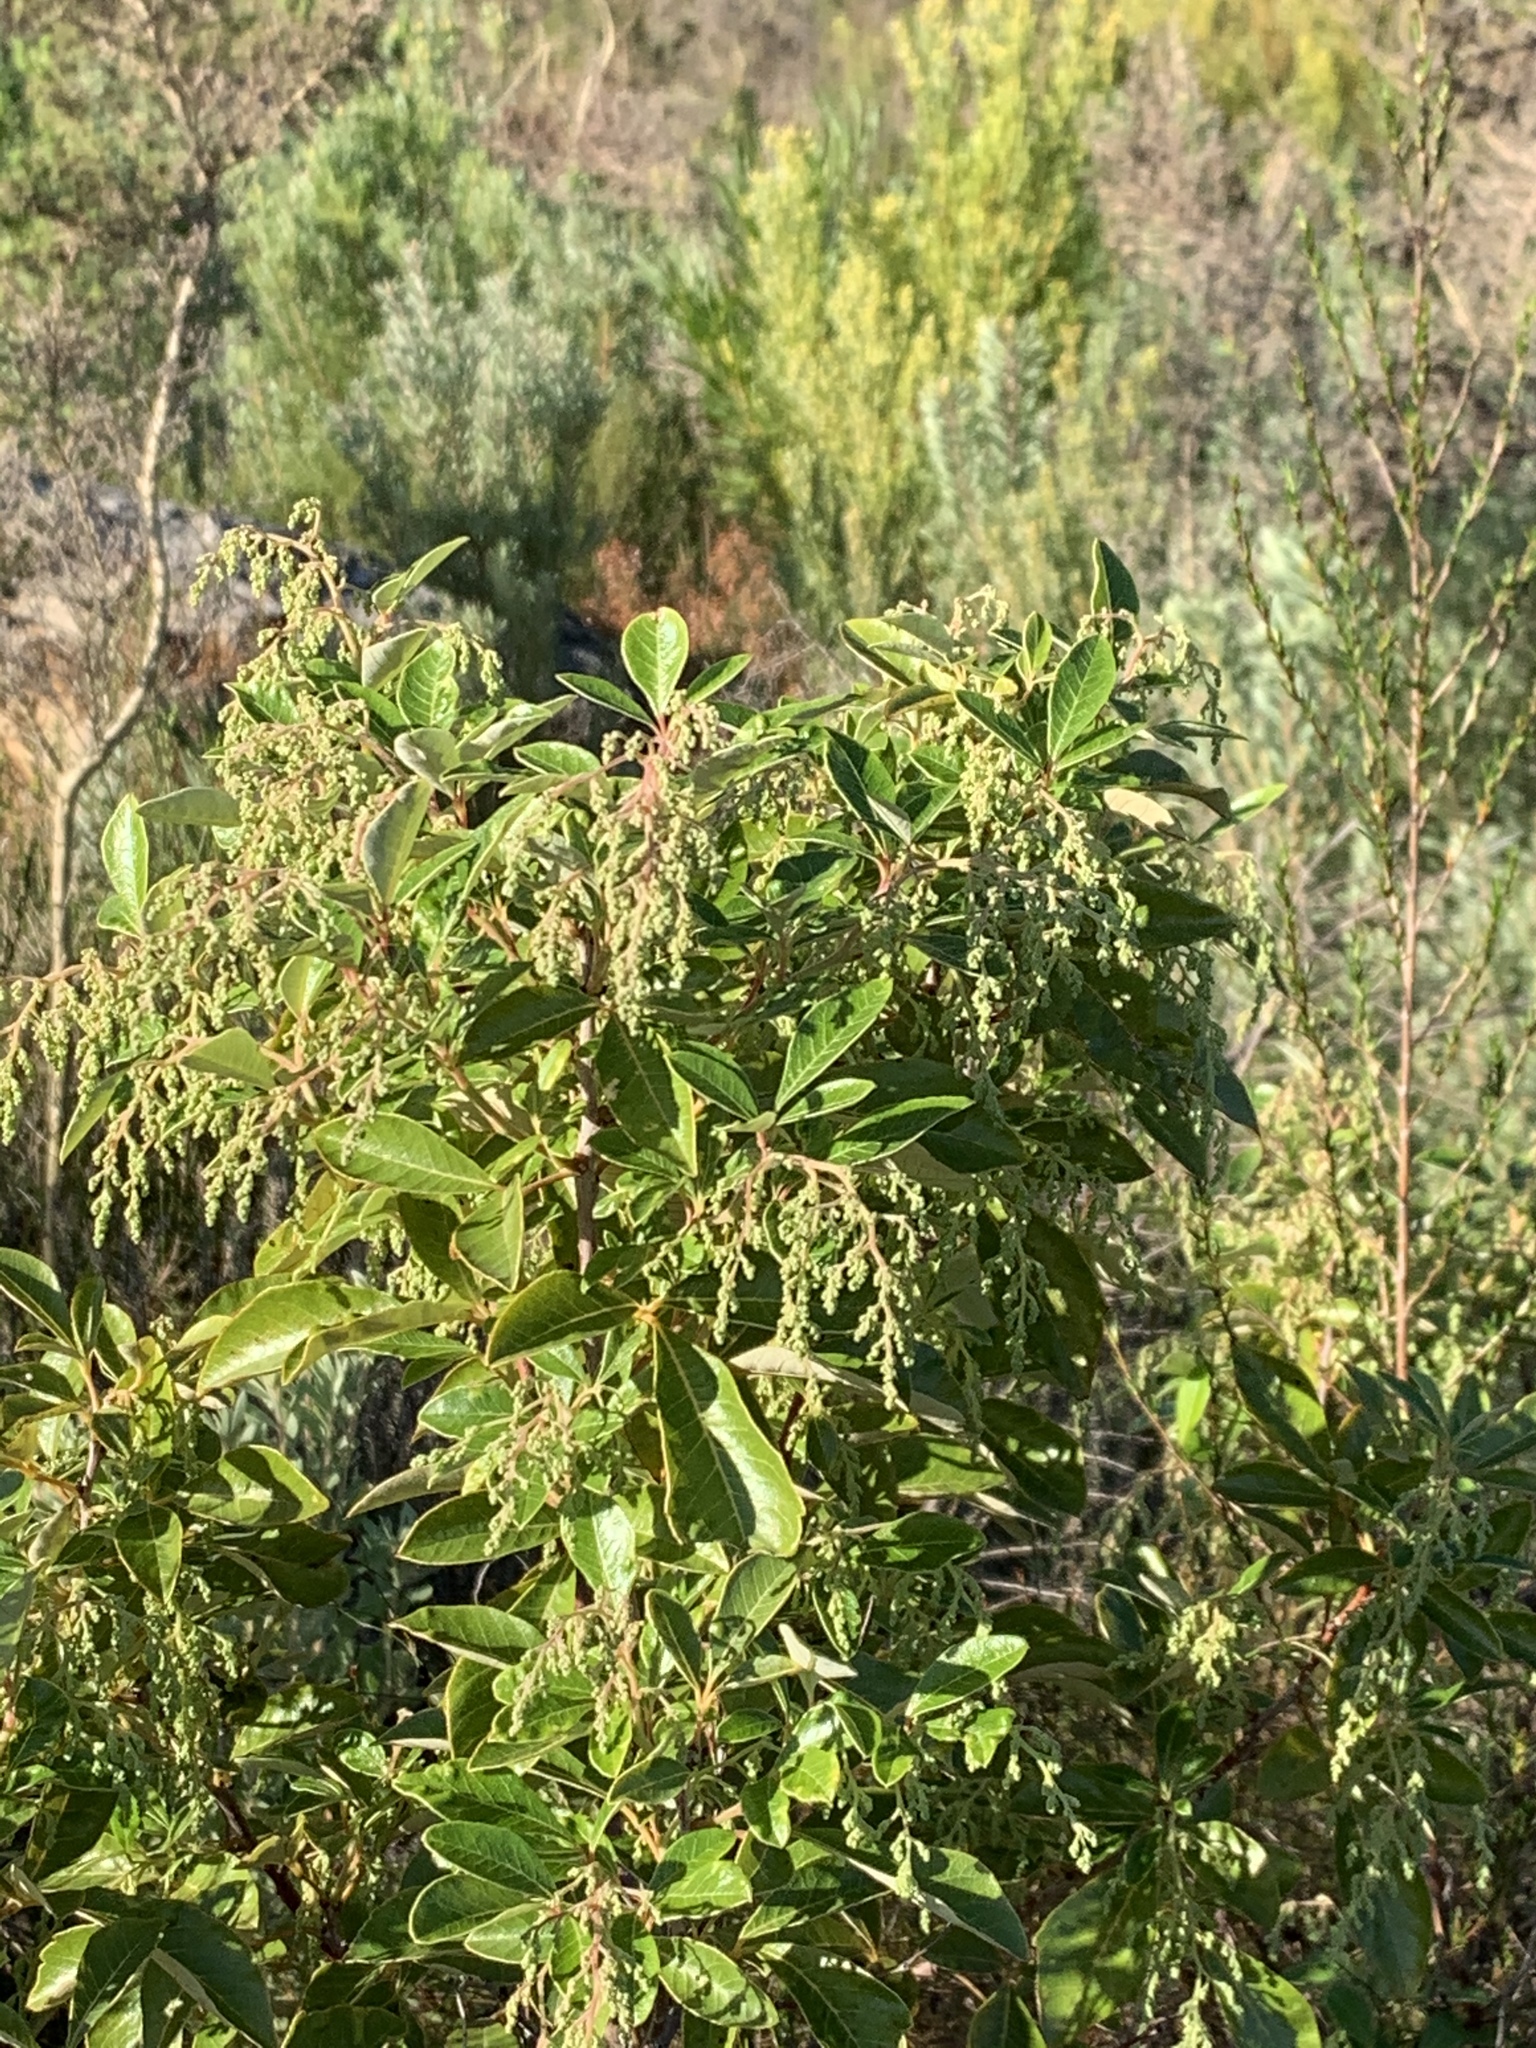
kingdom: Plantae
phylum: Tracheophyta
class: Magnoliopsida
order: Sapindales
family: Anacardiaceae
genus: Searsia
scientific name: Searsia tomentosa
